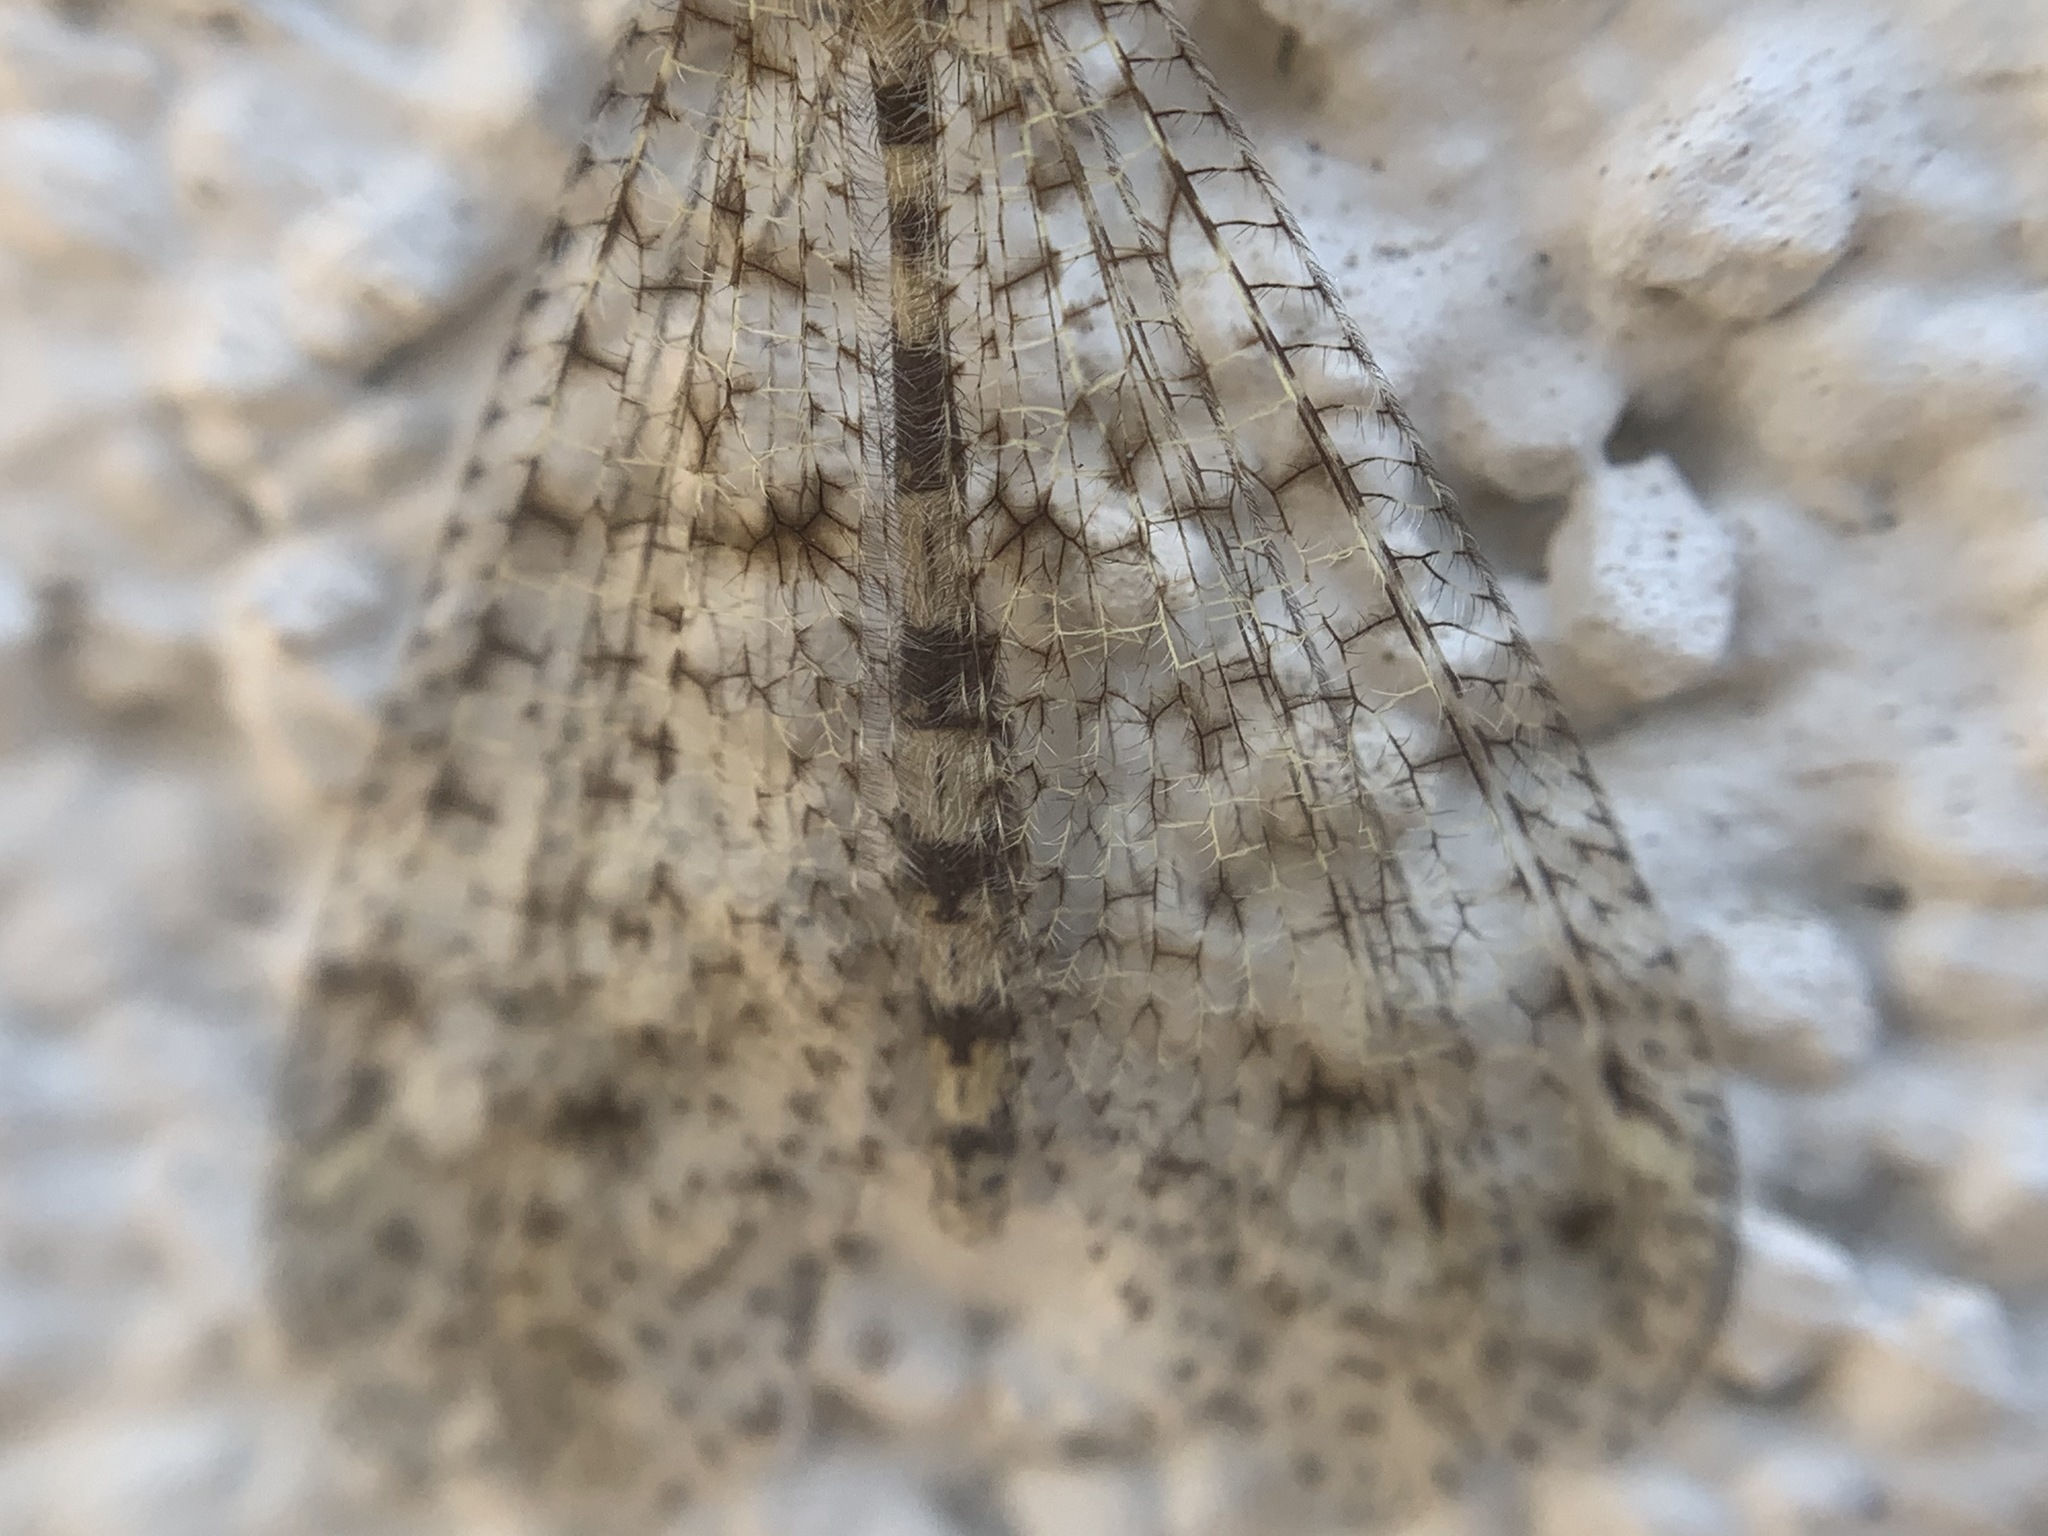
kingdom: Animalia
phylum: Arthropoda
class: Insecta
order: Neuroptera
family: Myrmeleontidae
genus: Menkeleon
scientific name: Menkeleon bellulus
